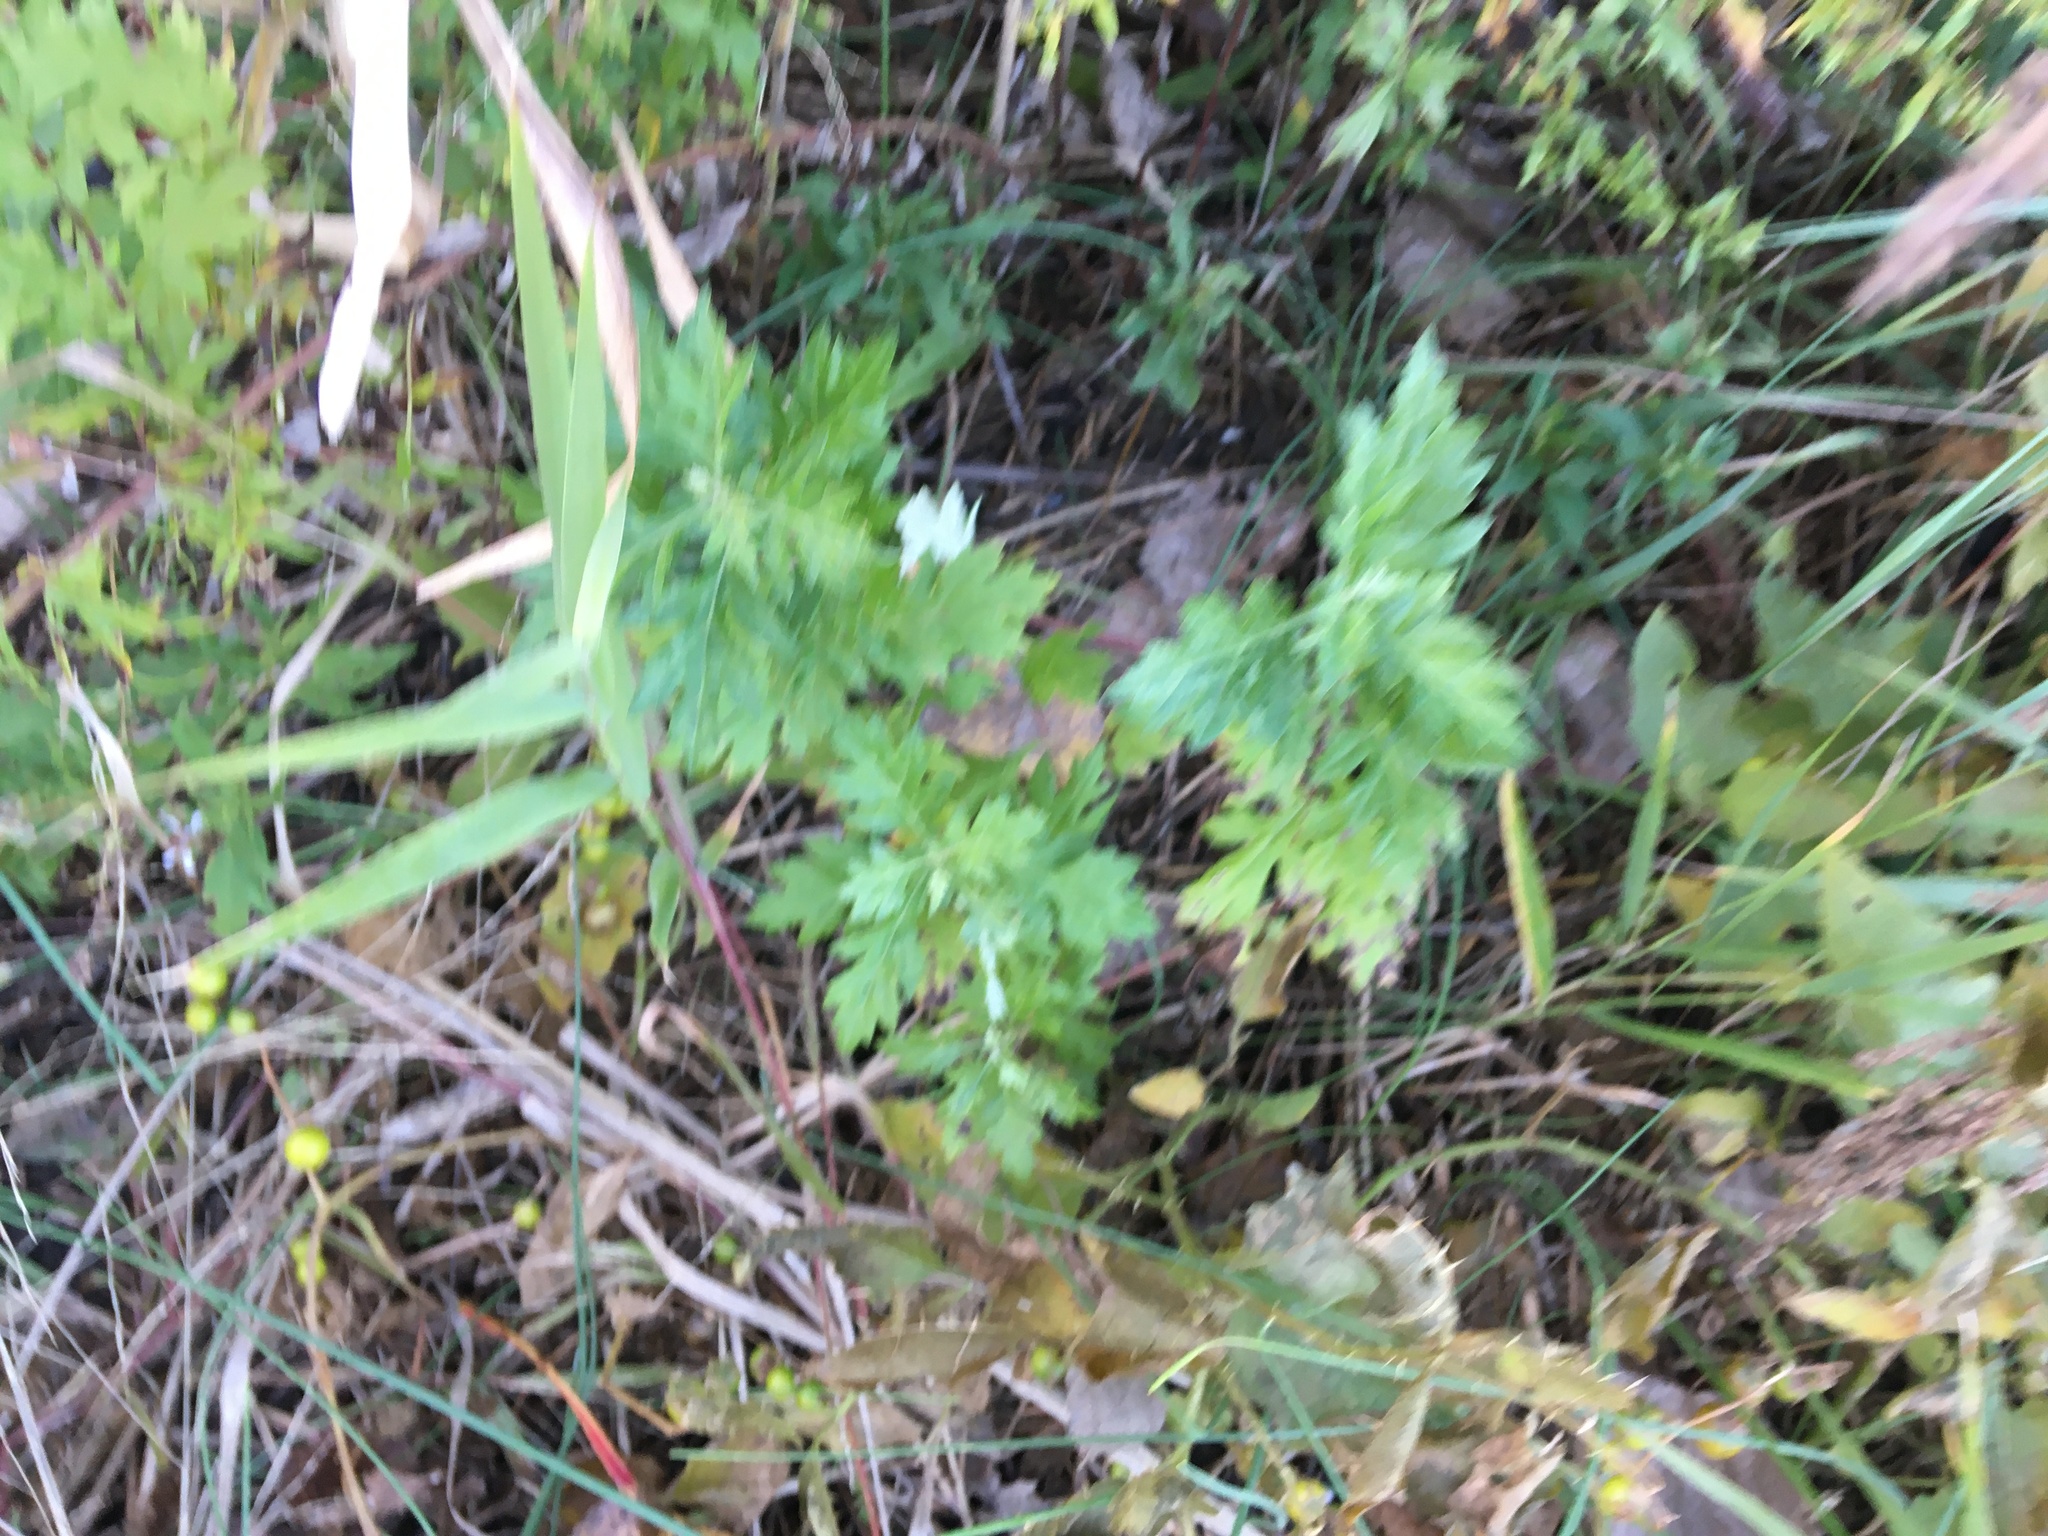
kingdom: Plantae
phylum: Tracheophyta
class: Magnoliopsida
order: Asterales
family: Asteraceae
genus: Artemisia
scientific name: Artemisia vulgaris
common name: Mugwort
